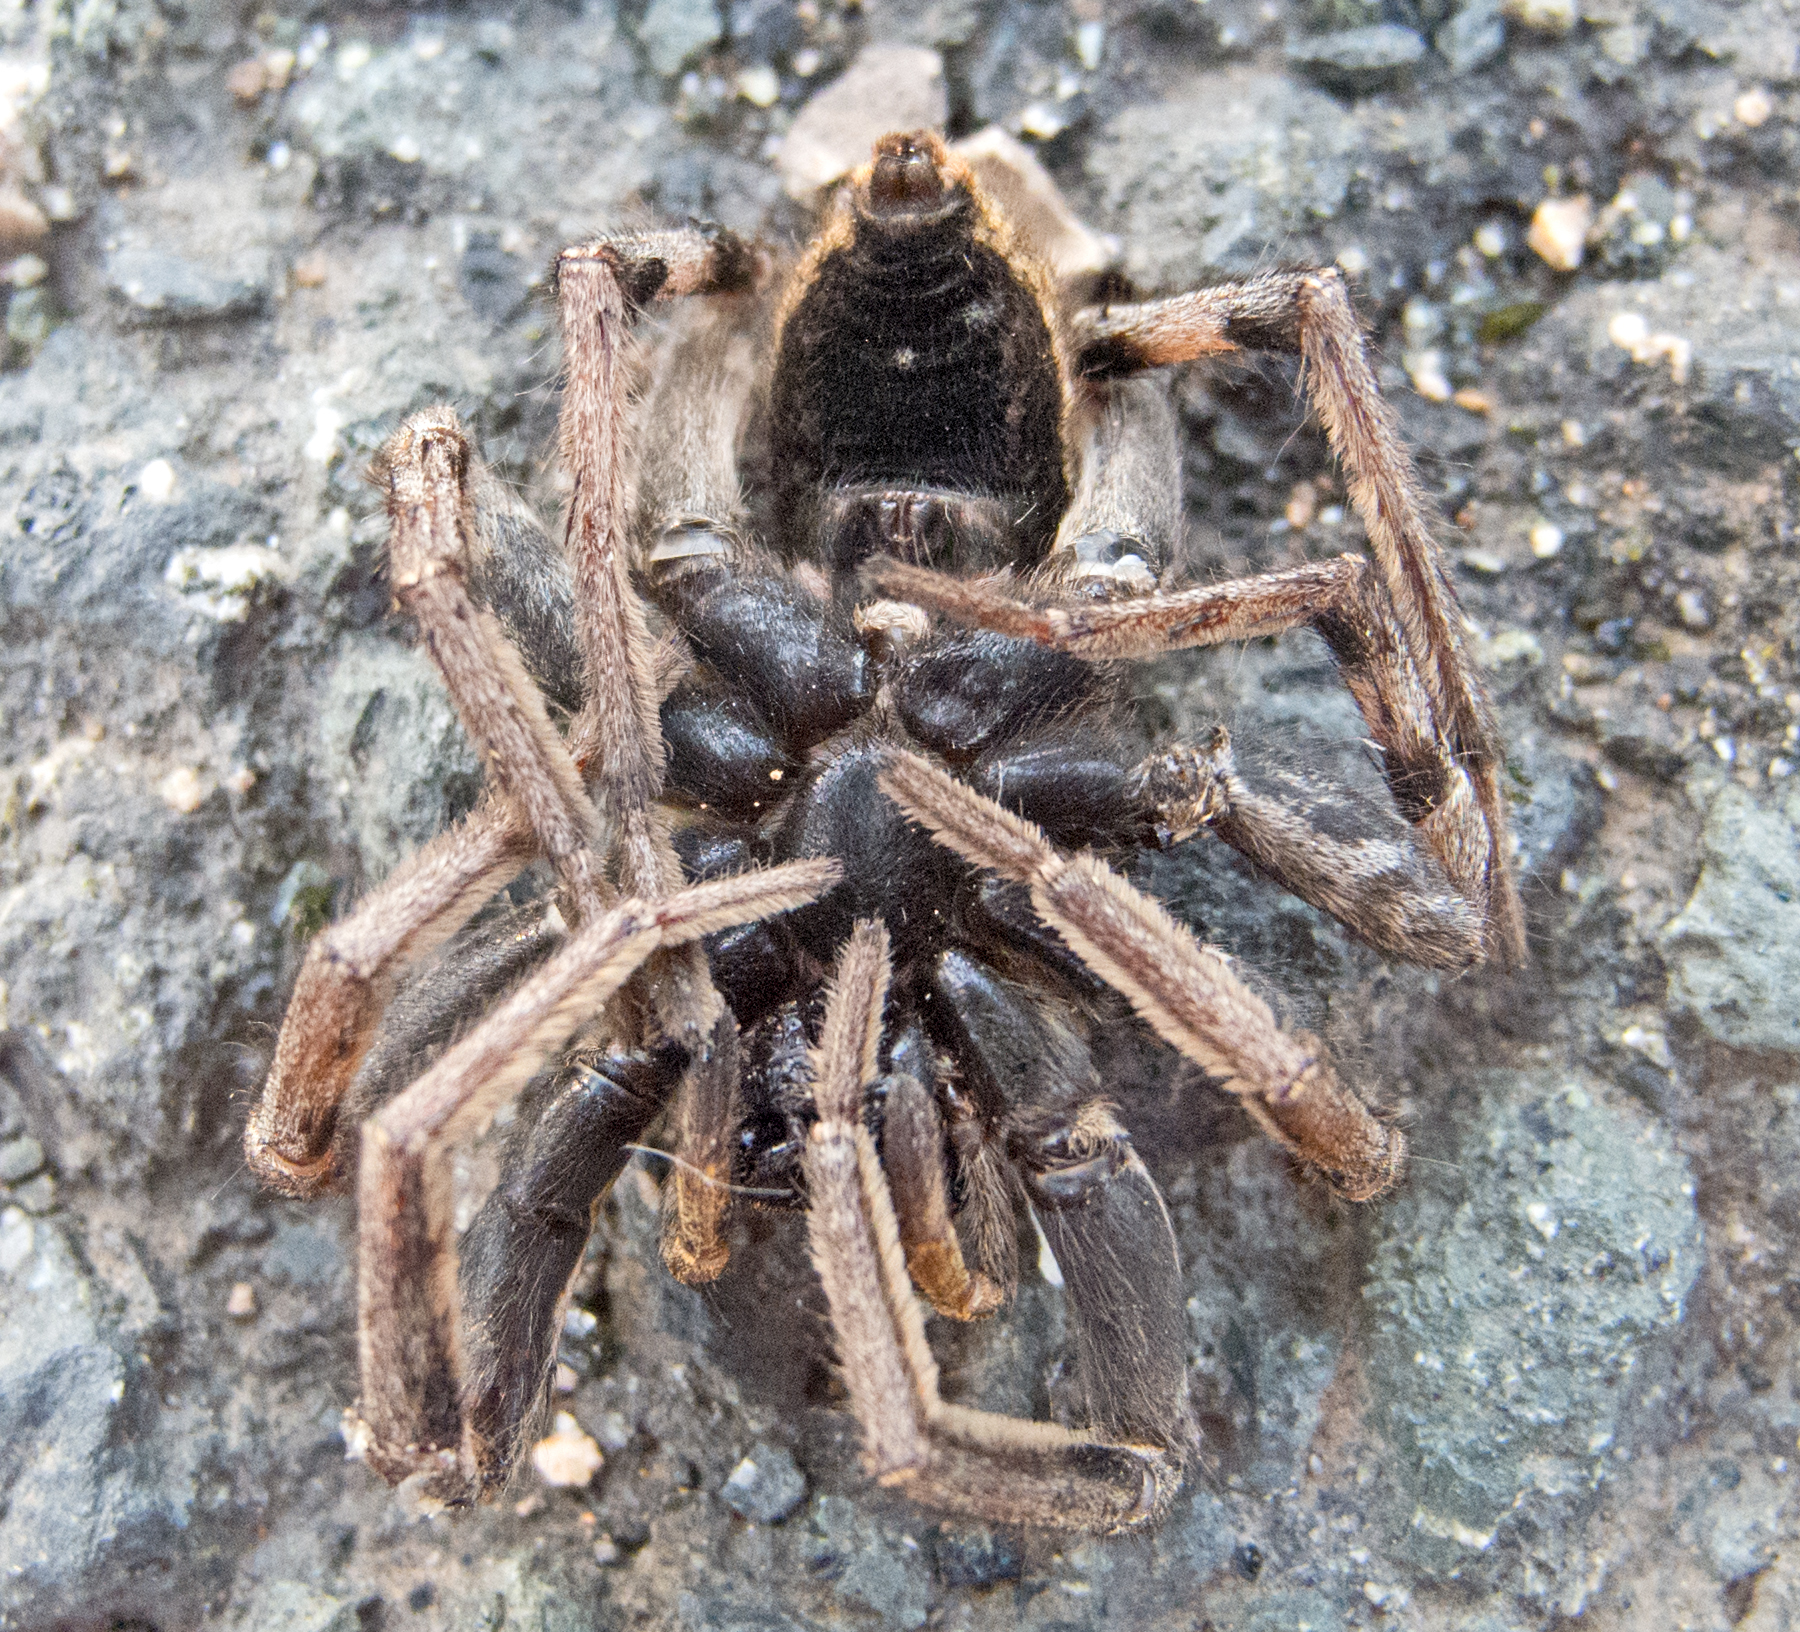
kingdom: Animalia
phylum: Arthropoda
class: Arachnida
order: Araneae
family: Lycosidae
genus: Hogna
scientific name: Hogna radiata
